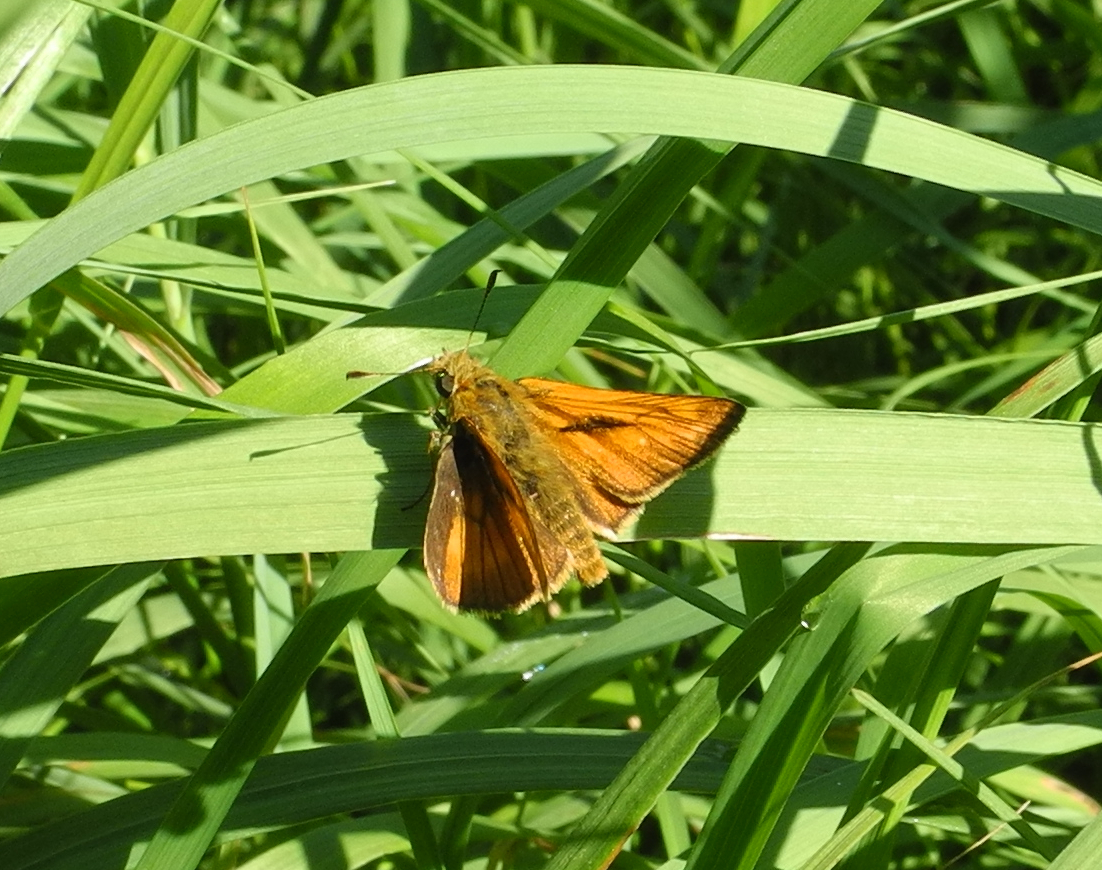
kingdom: Animalia
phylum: Arthropoda
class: Insecta
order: Lepidoptera
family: Hesperiidae
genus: Ochlodes
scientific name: Ochlodes venata
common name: Large skipper
